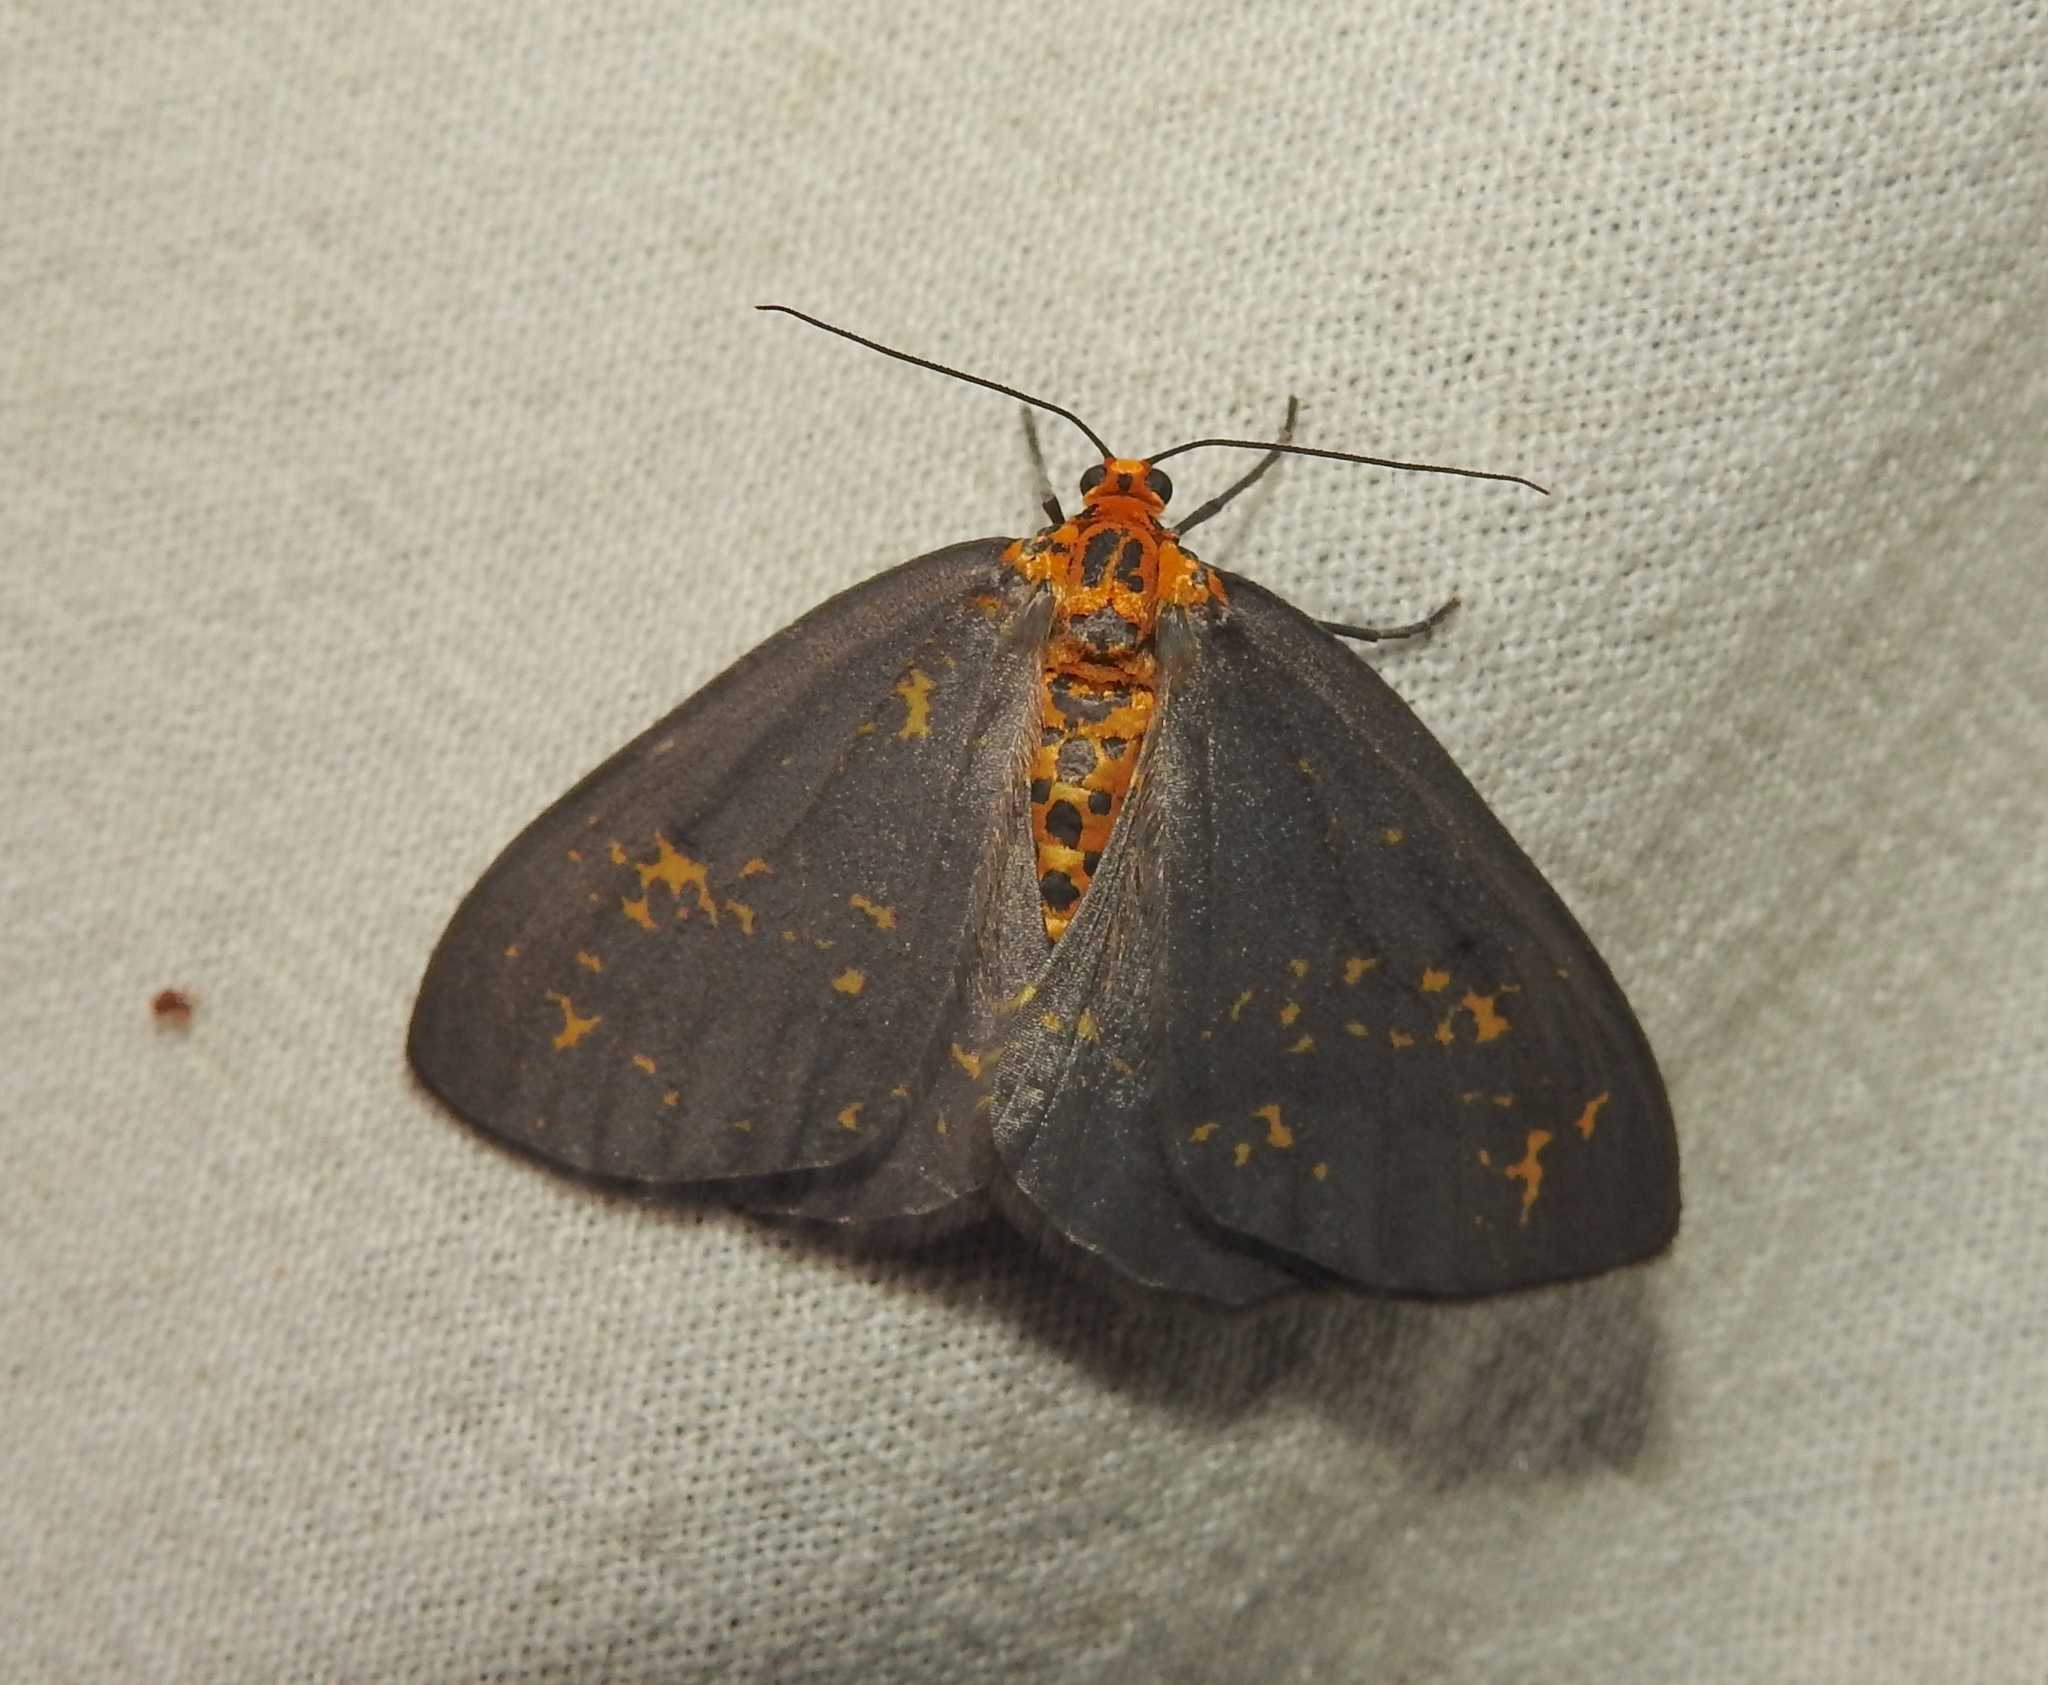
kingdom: Animalia
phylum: Arthropoda
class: Insecta
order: Lepidoptera
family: Geometridae
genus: Abraxas
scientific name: Abraxas poliaria
